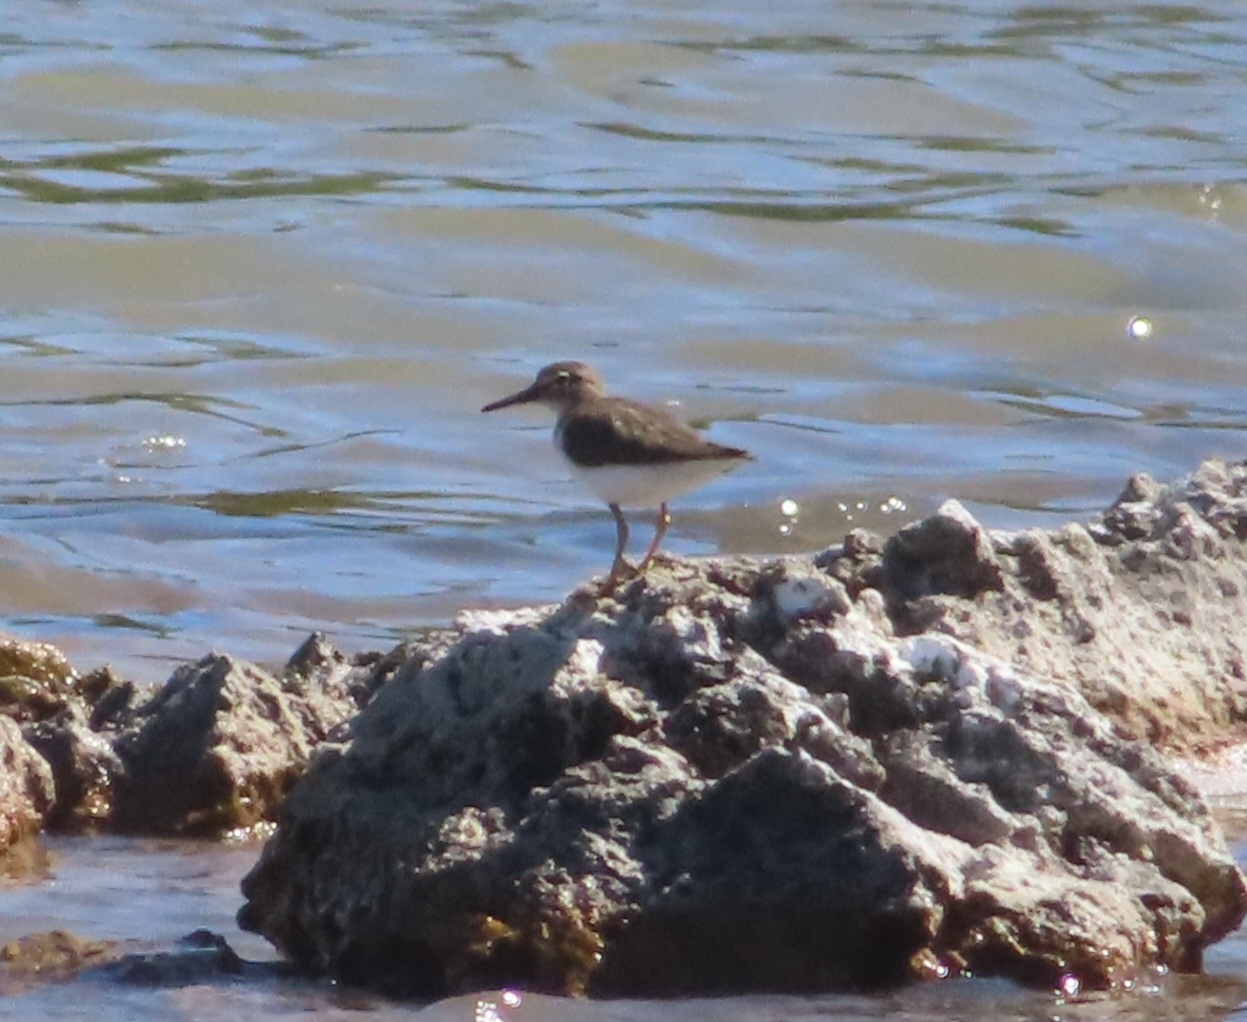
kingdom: Animalia
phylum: Chordata
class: Aves
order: Charadriiformes
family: Scolopacidae
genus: Actitis
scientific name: Actitis macularius
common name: Spotted sandpiper
